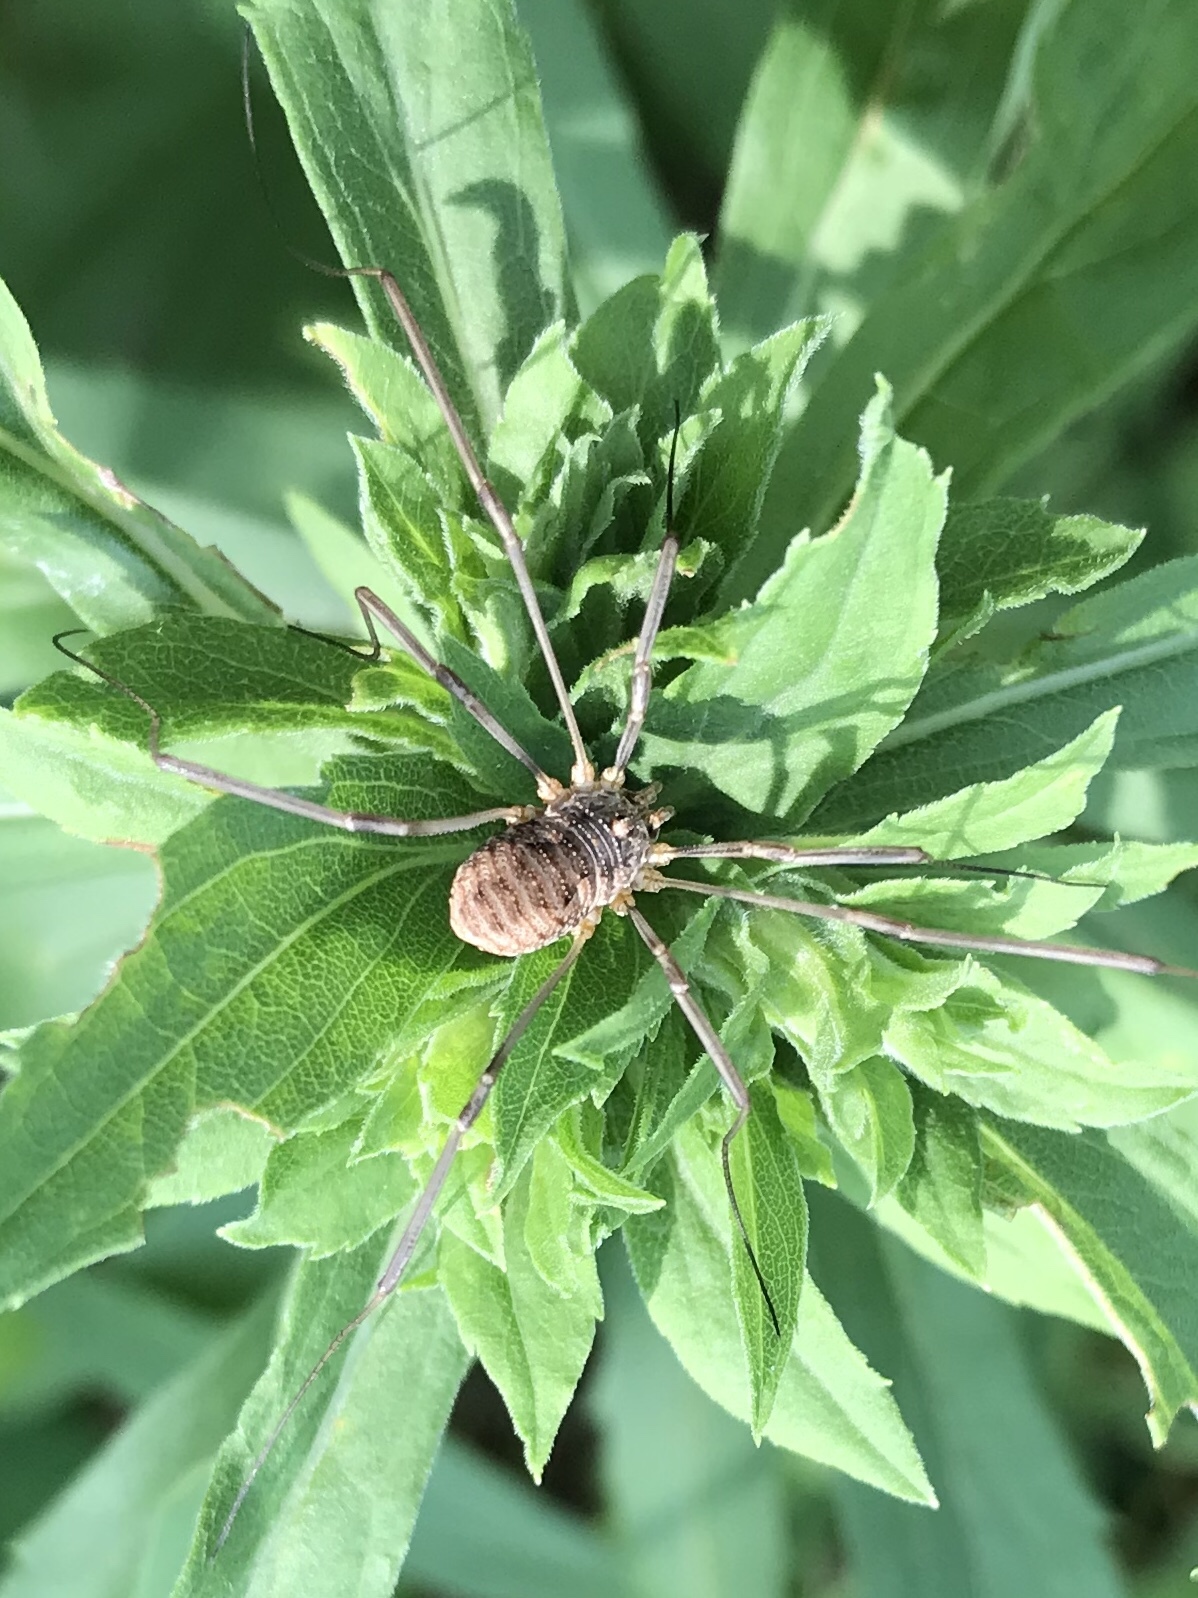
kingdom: Animalia
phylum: Arthropoda
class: Arachnida
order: Opiliones
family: Phalangiidae
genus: Phalangium
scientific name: Phalangium opilio
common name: Daddy longleg
